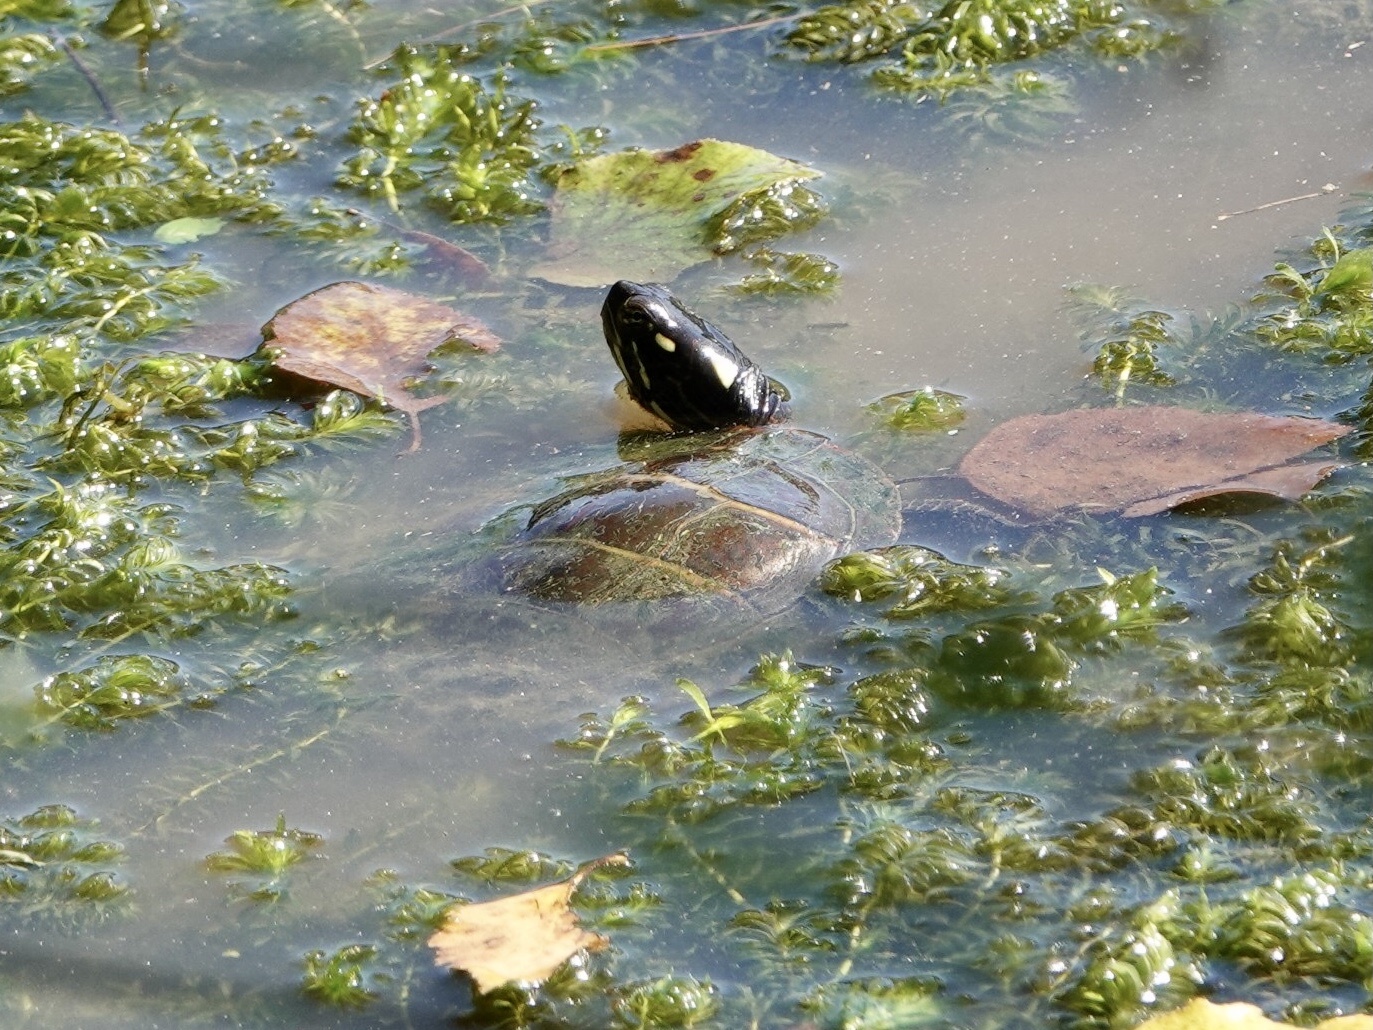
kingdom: Animalia
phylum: Chordata
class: Testudines
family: Emydidae
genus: Chrysemys
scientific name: Chrysemys picta
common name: Painted turtle
